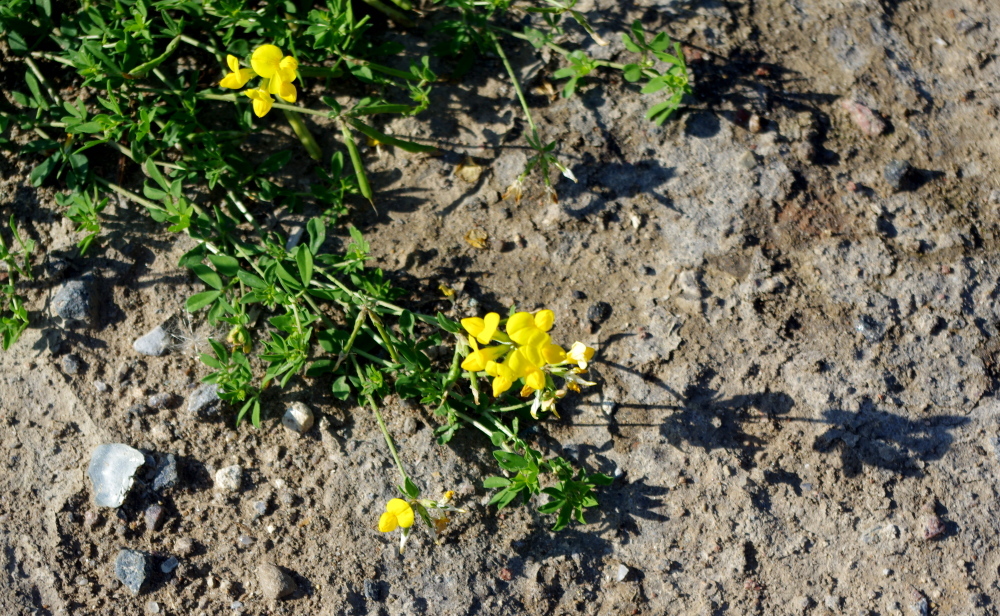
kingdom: Plantae
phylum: Tracheophyta
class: Magnoliopsida
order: Fabales
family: Fabaceae
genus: Lotus
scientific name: Lotus corniculatus
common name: Common bird's-foot-trefoil
